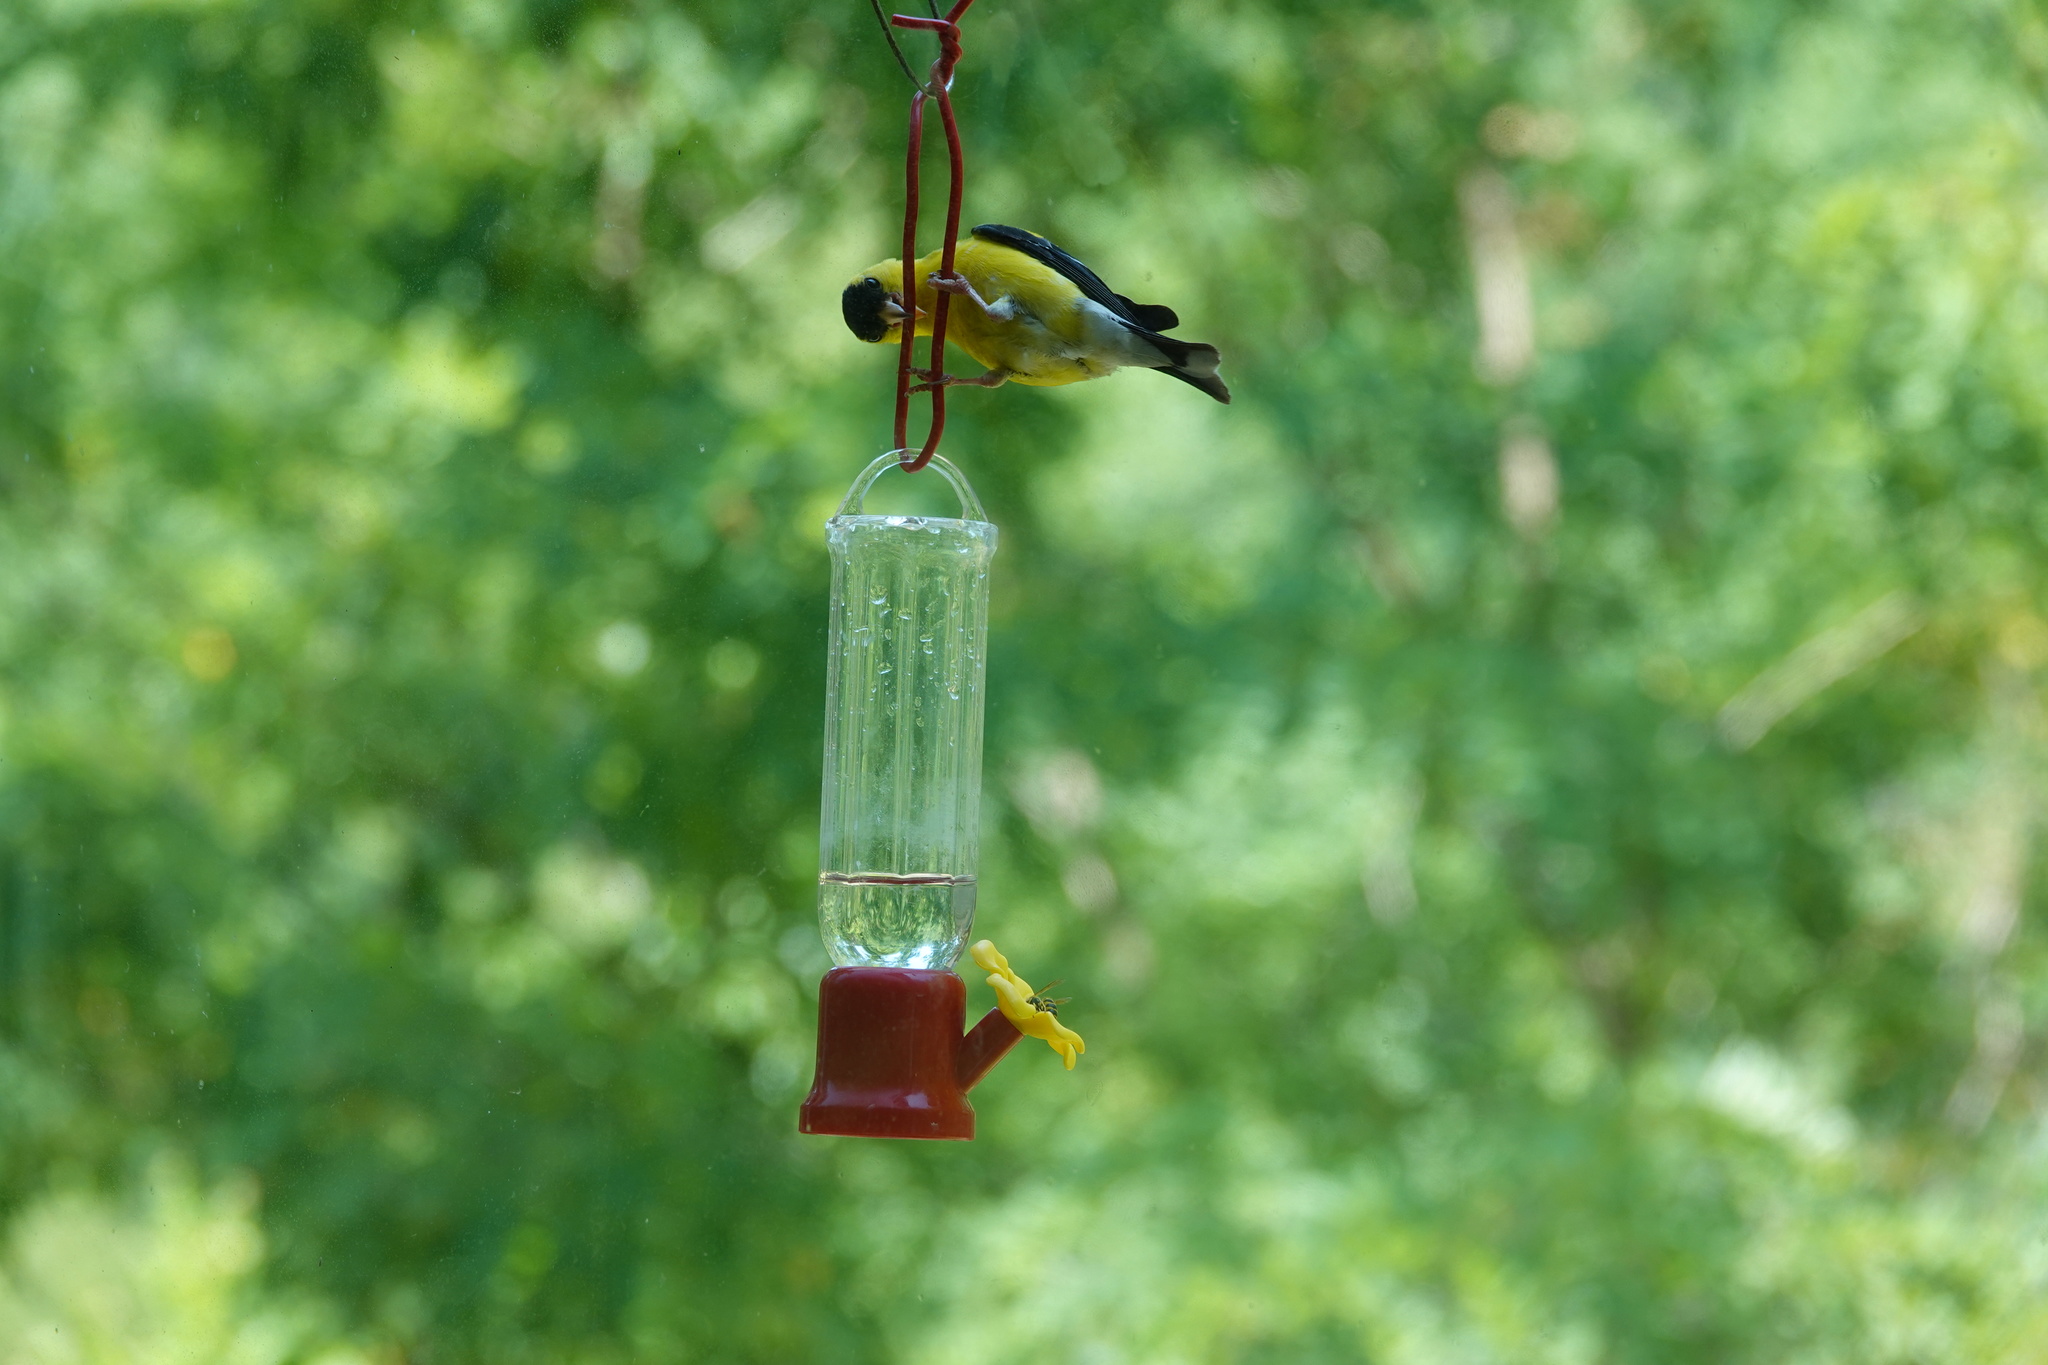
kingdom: Animalia
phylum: Chordata
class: Aves
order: Passeriformes
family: Fringillidae
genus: Spinus
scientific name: Spinus tristis
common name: American goldfinch
